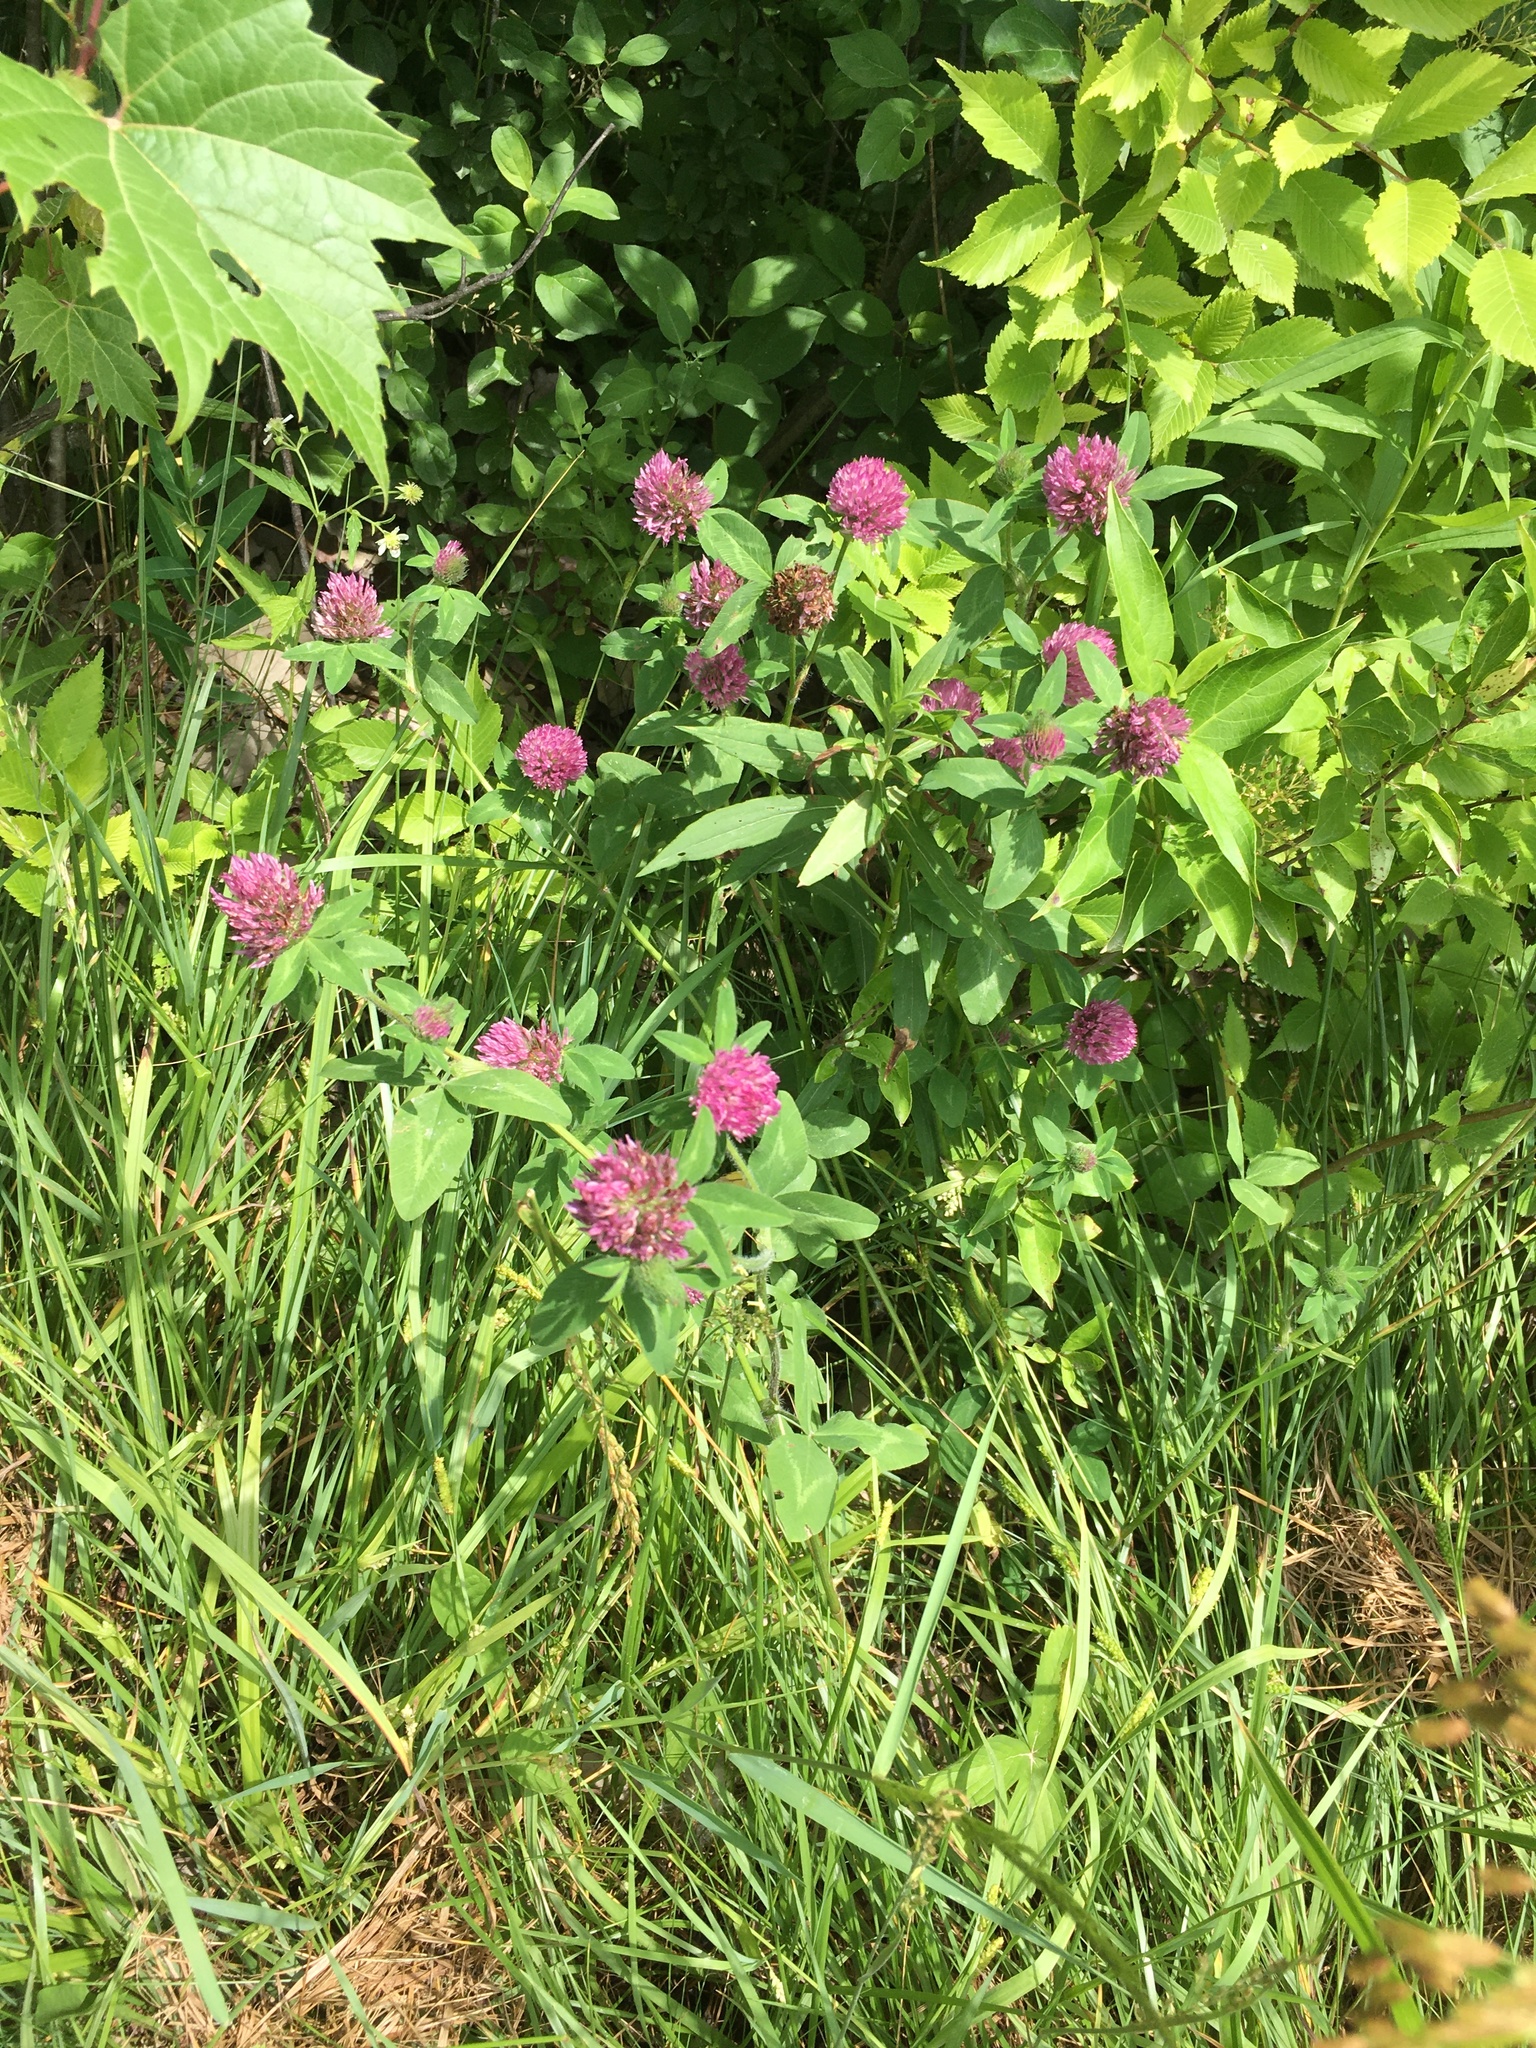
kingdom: Plantae
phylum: Tracheophyta
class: Magnoliopsida
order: Fabales
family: Fabaceae
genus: Trifolium
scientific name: Trifolium pratense
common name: Red clover
